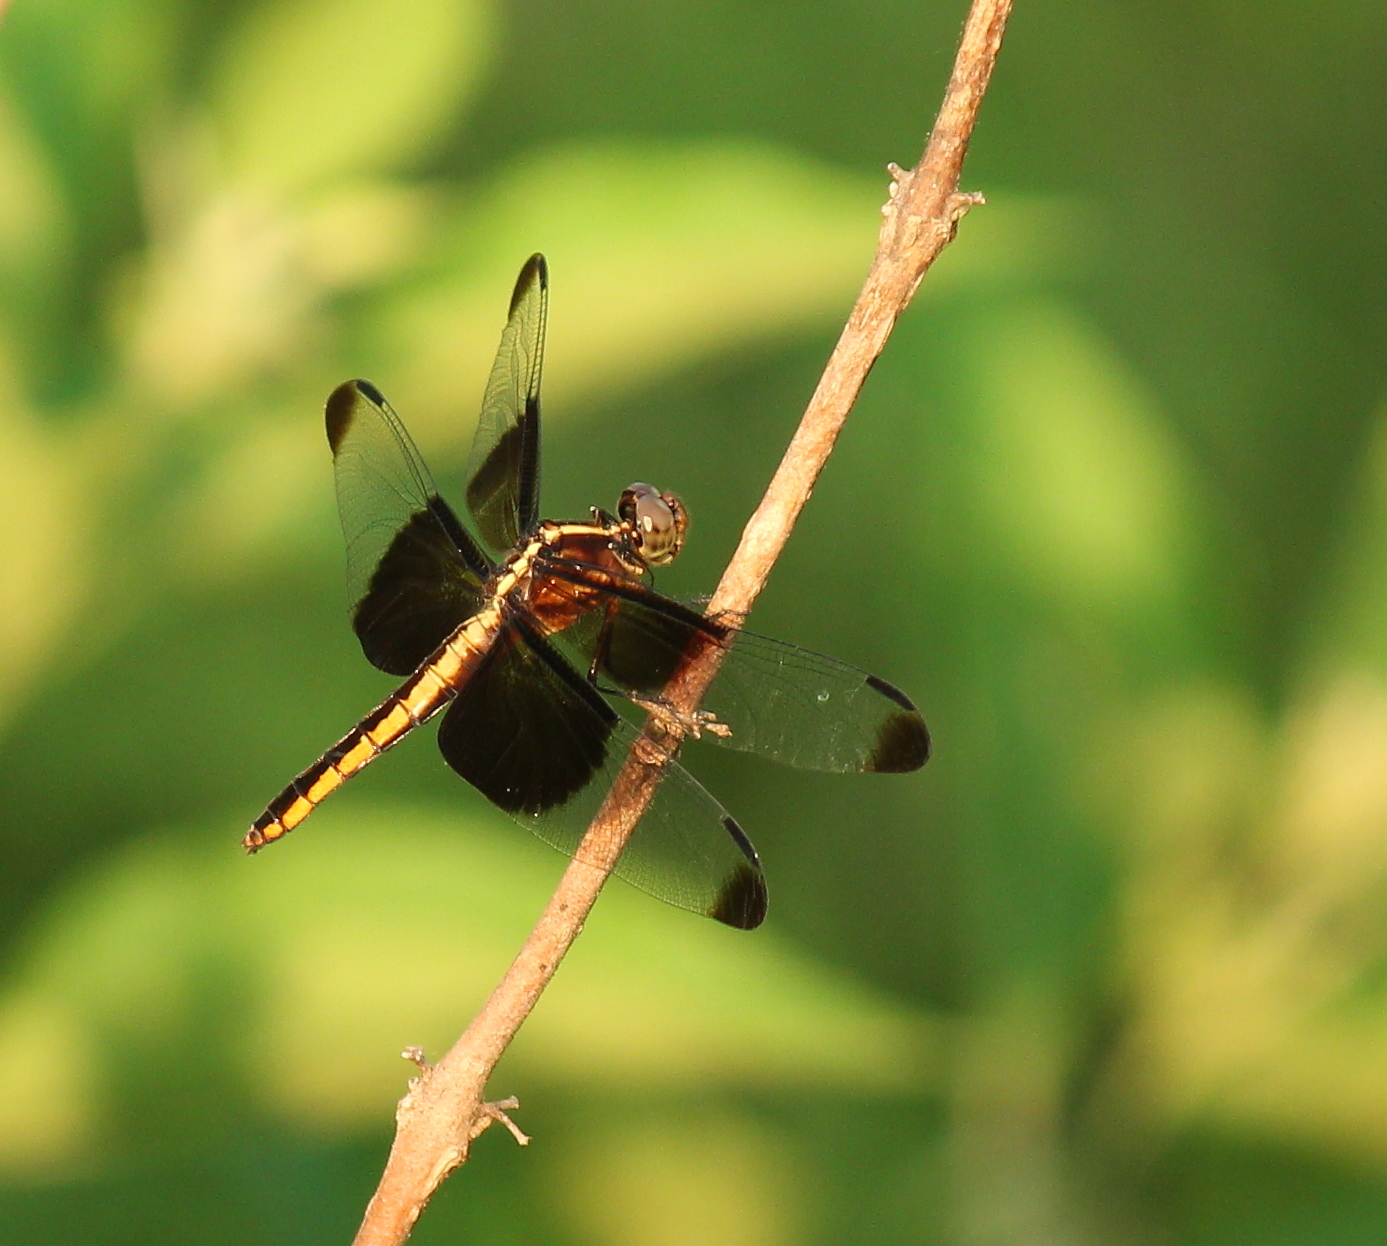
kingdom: Animalia
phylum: Arthropoda
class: Insecta
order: Odonata
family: Libellulidae
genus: Libellula
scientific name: Libellula luctuosa
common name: Widow skimmer
